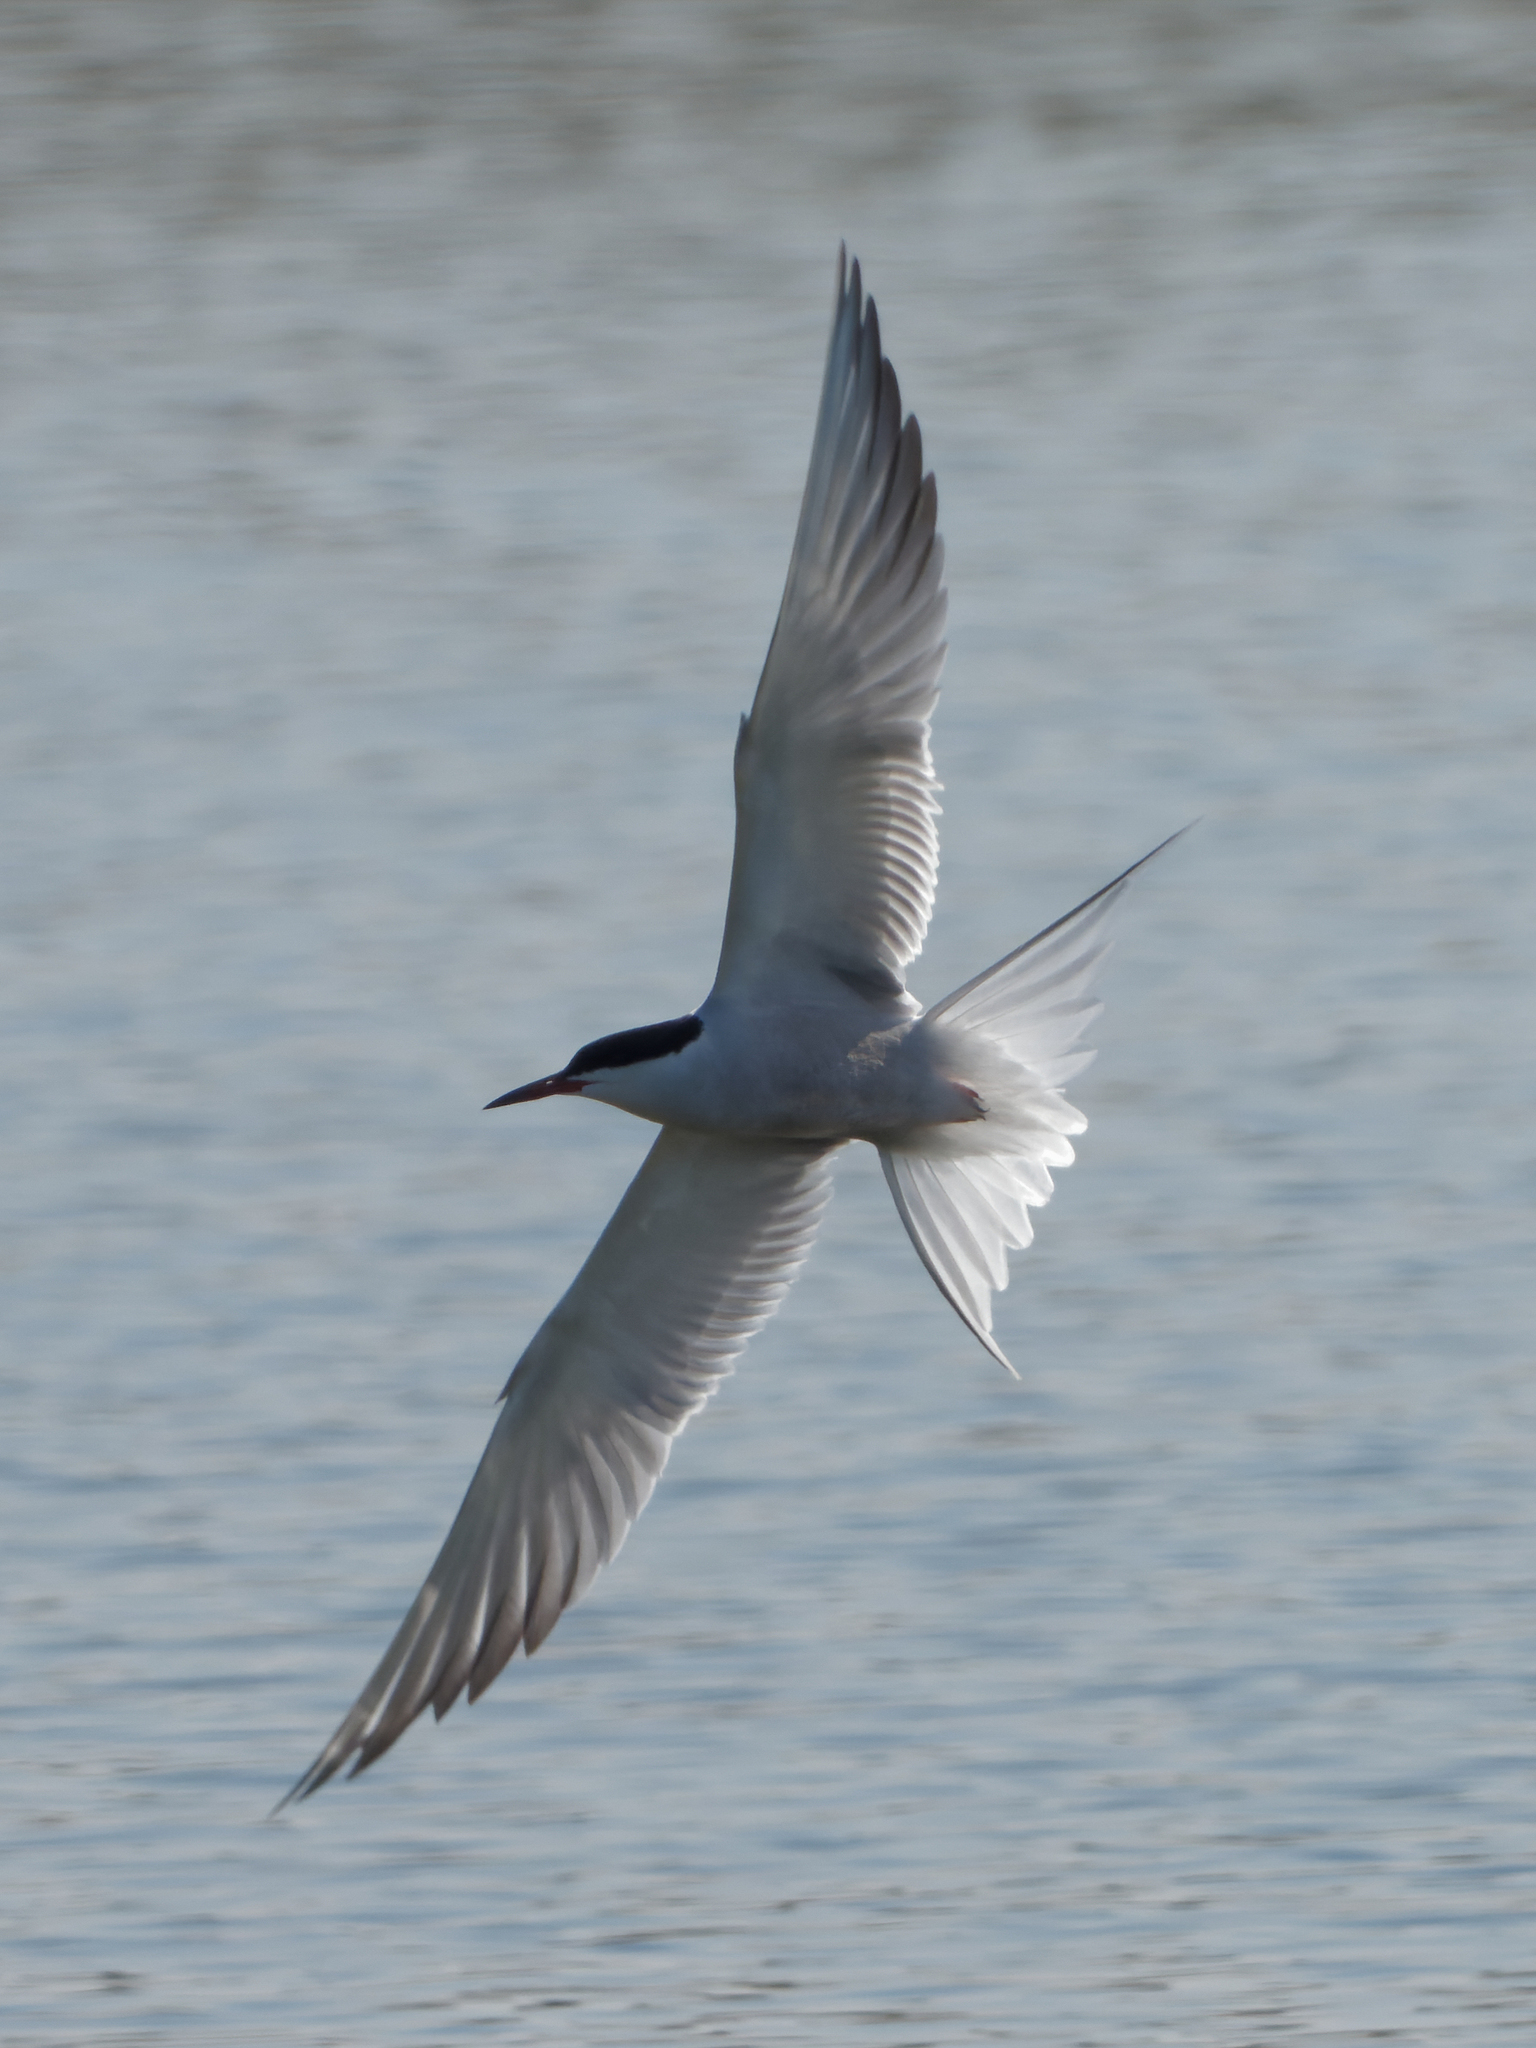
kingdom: Animalia
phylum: Chordata
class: Aves
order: Charadriiformes
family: Laridae
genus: Sterna
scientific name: Sterna hirundo
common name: Common tern
